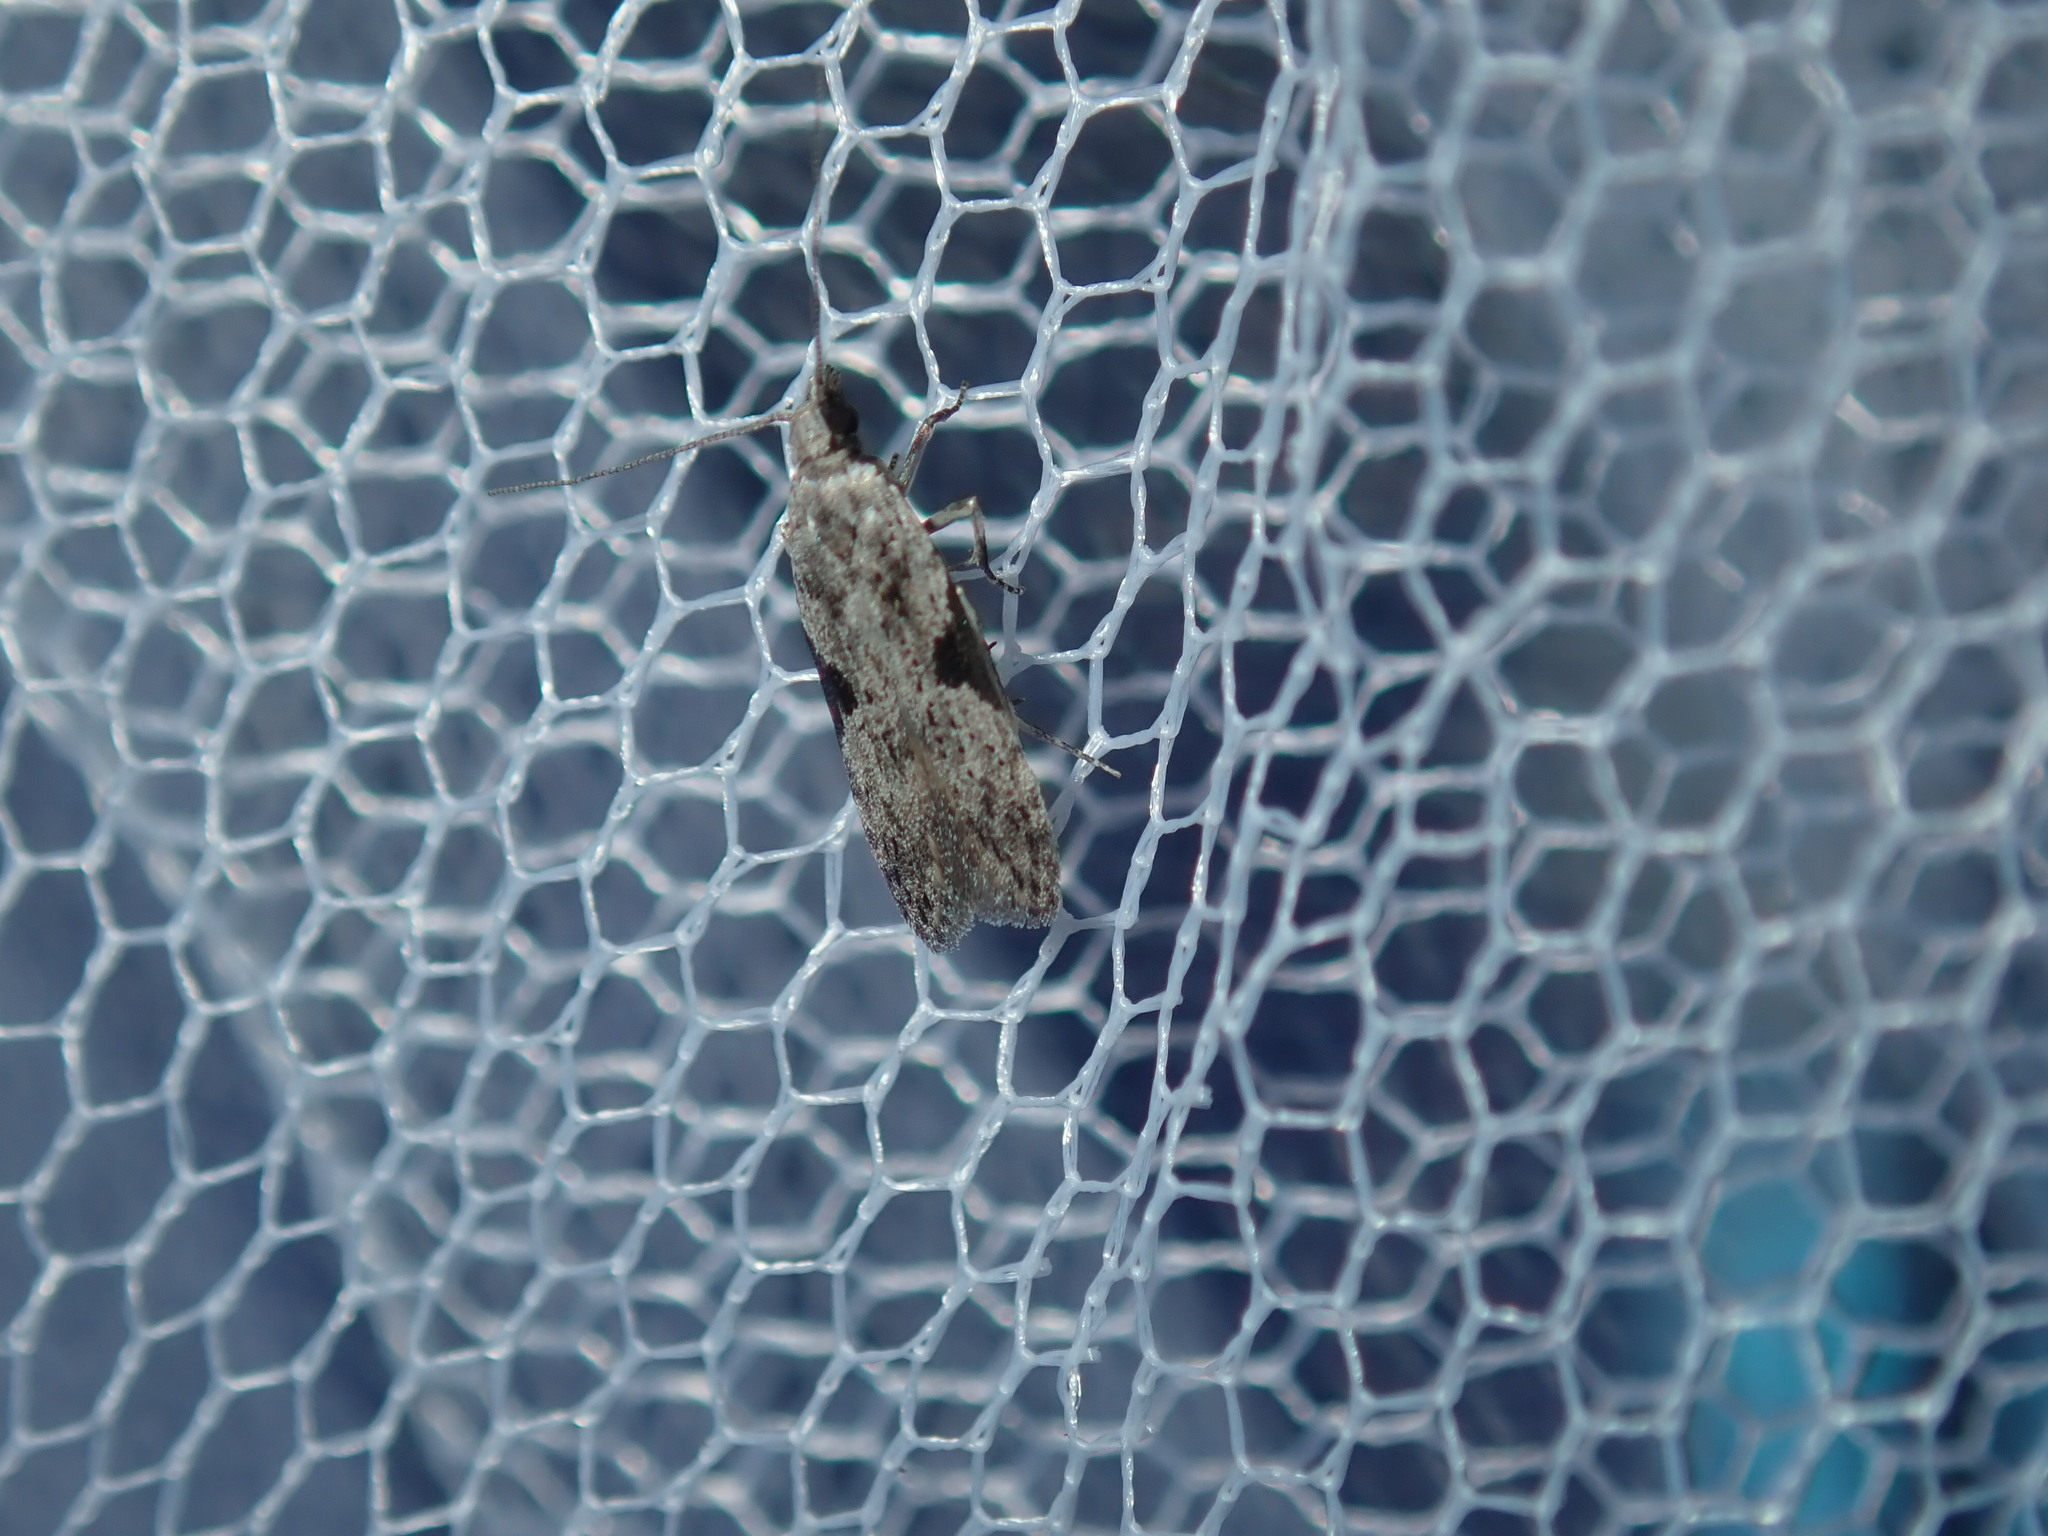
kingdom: Animalia
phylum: Arthropoda
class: Insecta
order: Lepidoptera
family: Gelechiidae
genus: Anarsia
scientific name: Anarsia molybdota
